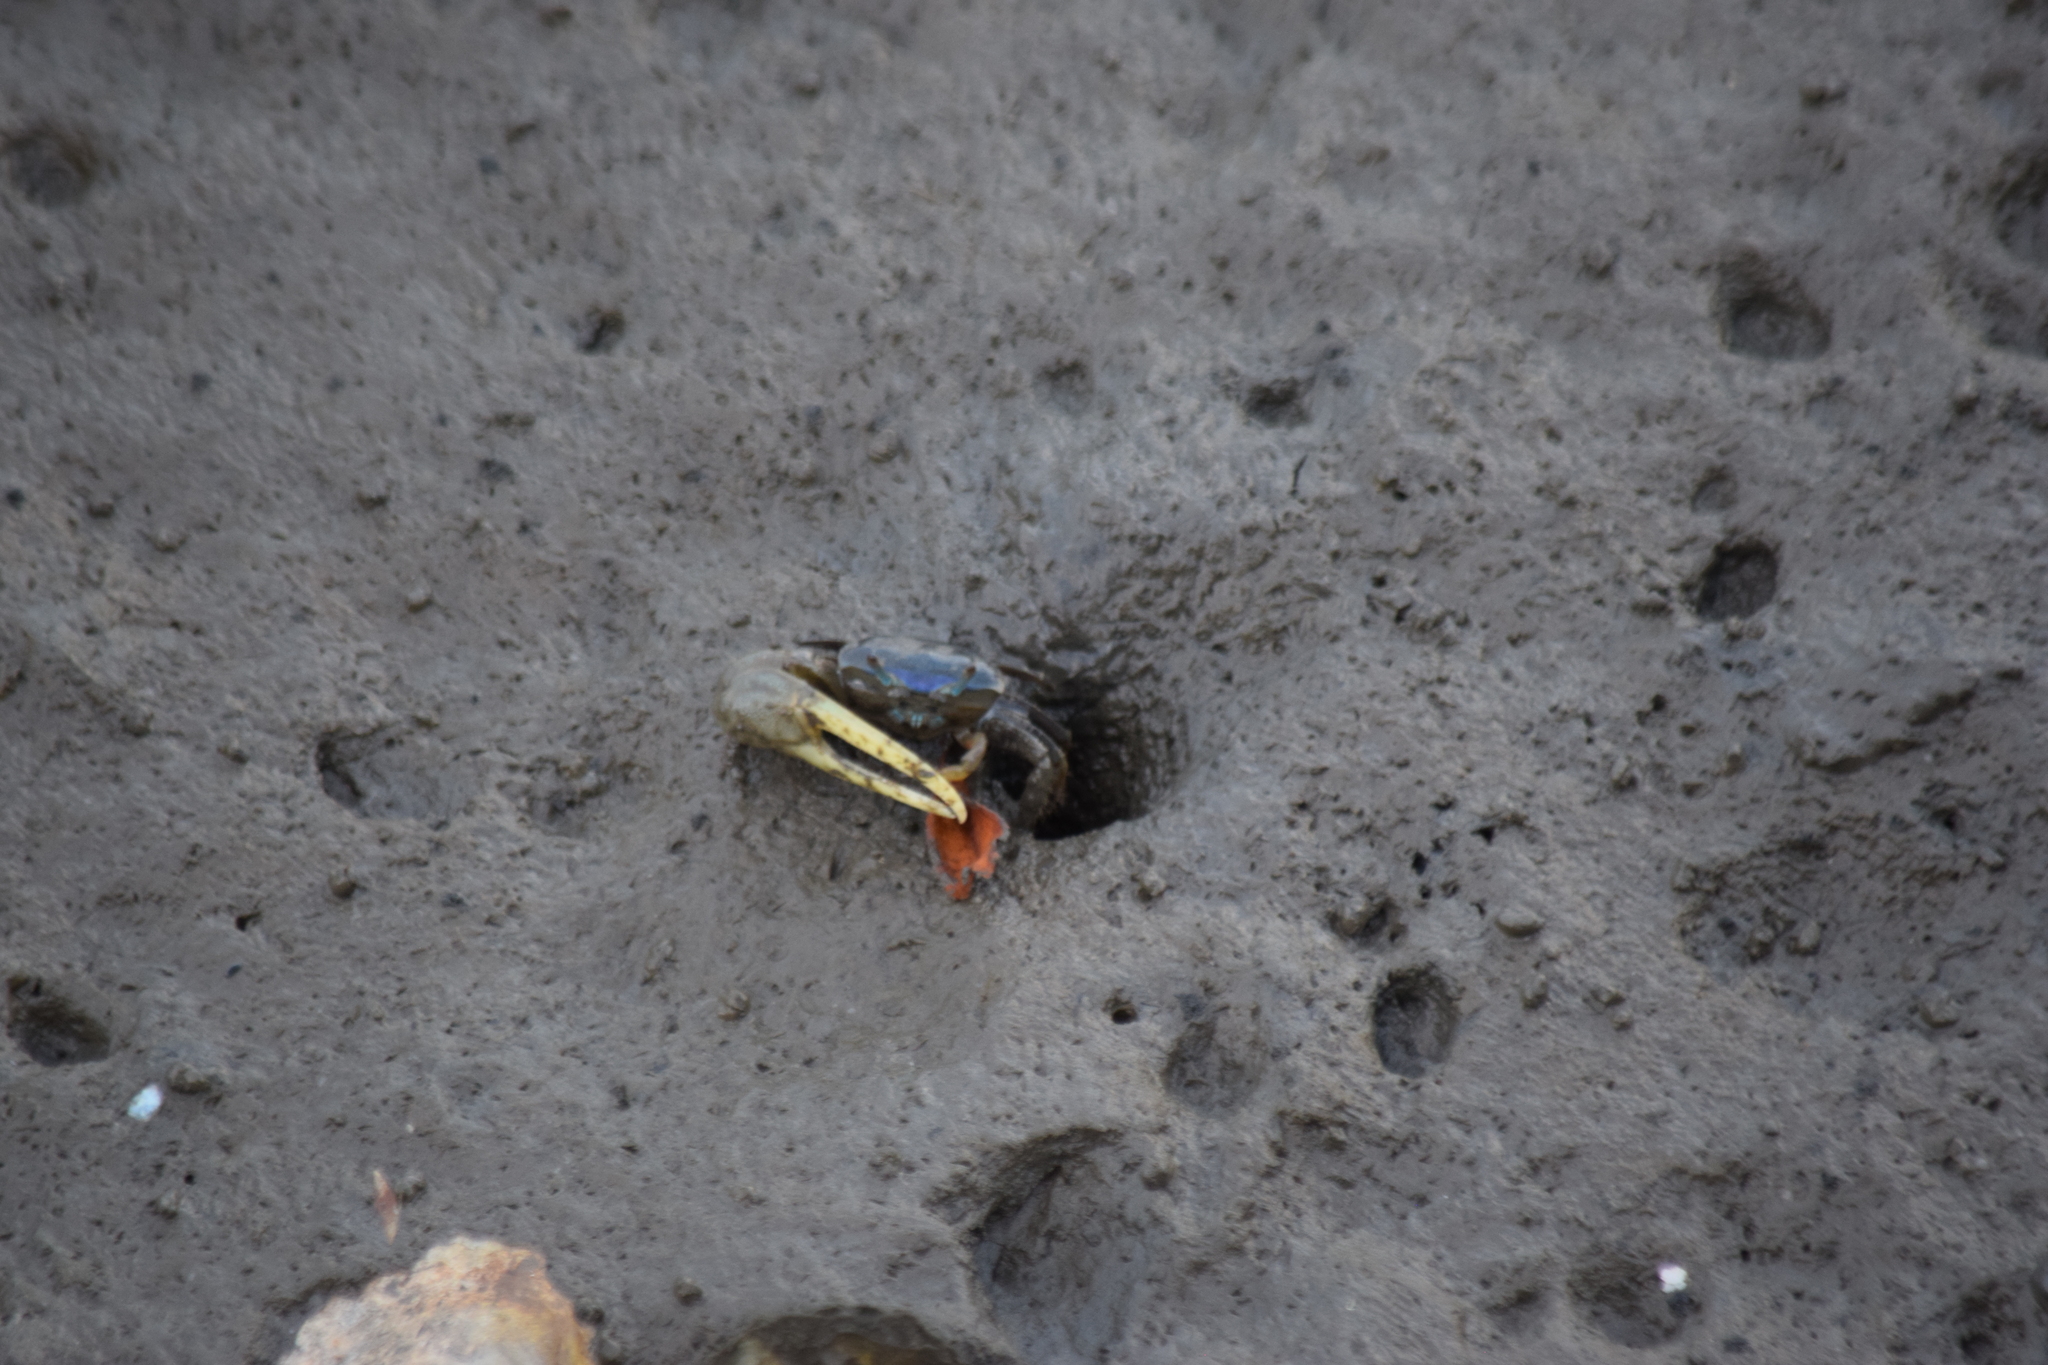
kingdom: Animalia
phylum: Arthropoda
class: Malacostraca
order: Decapoda
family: Ocypodidae
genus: Minuca
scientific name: Minuca pugnax
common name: Mud fiddler crab
